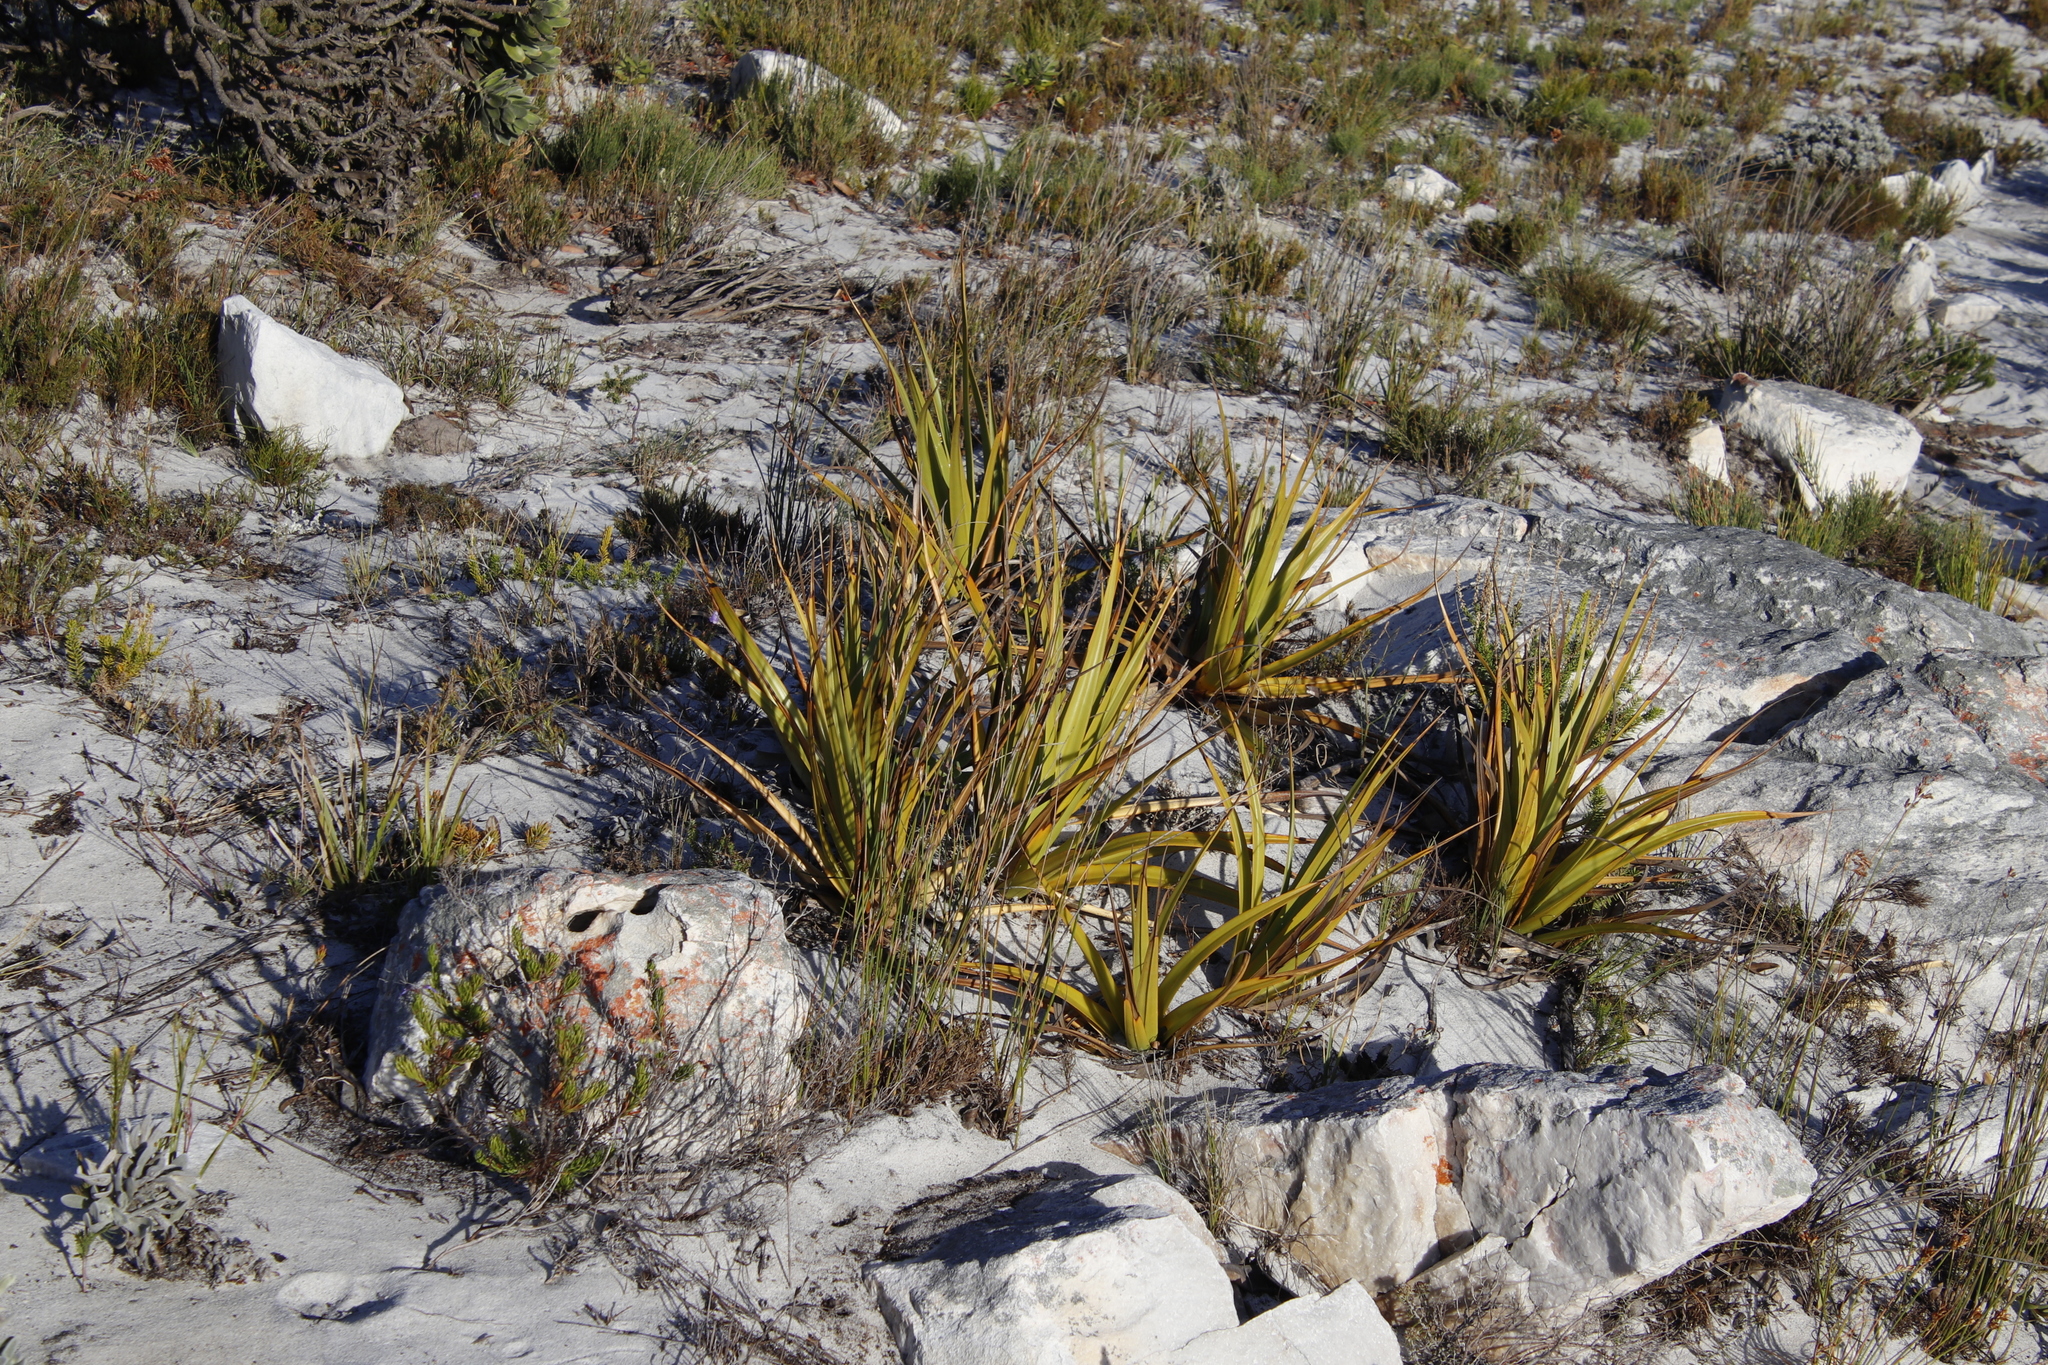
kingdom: Plantae
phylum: Tracheophyta
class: Liliopsida
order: Poales
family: Cyperaceae
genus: Tetraria
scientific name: Tetraria thermalis
